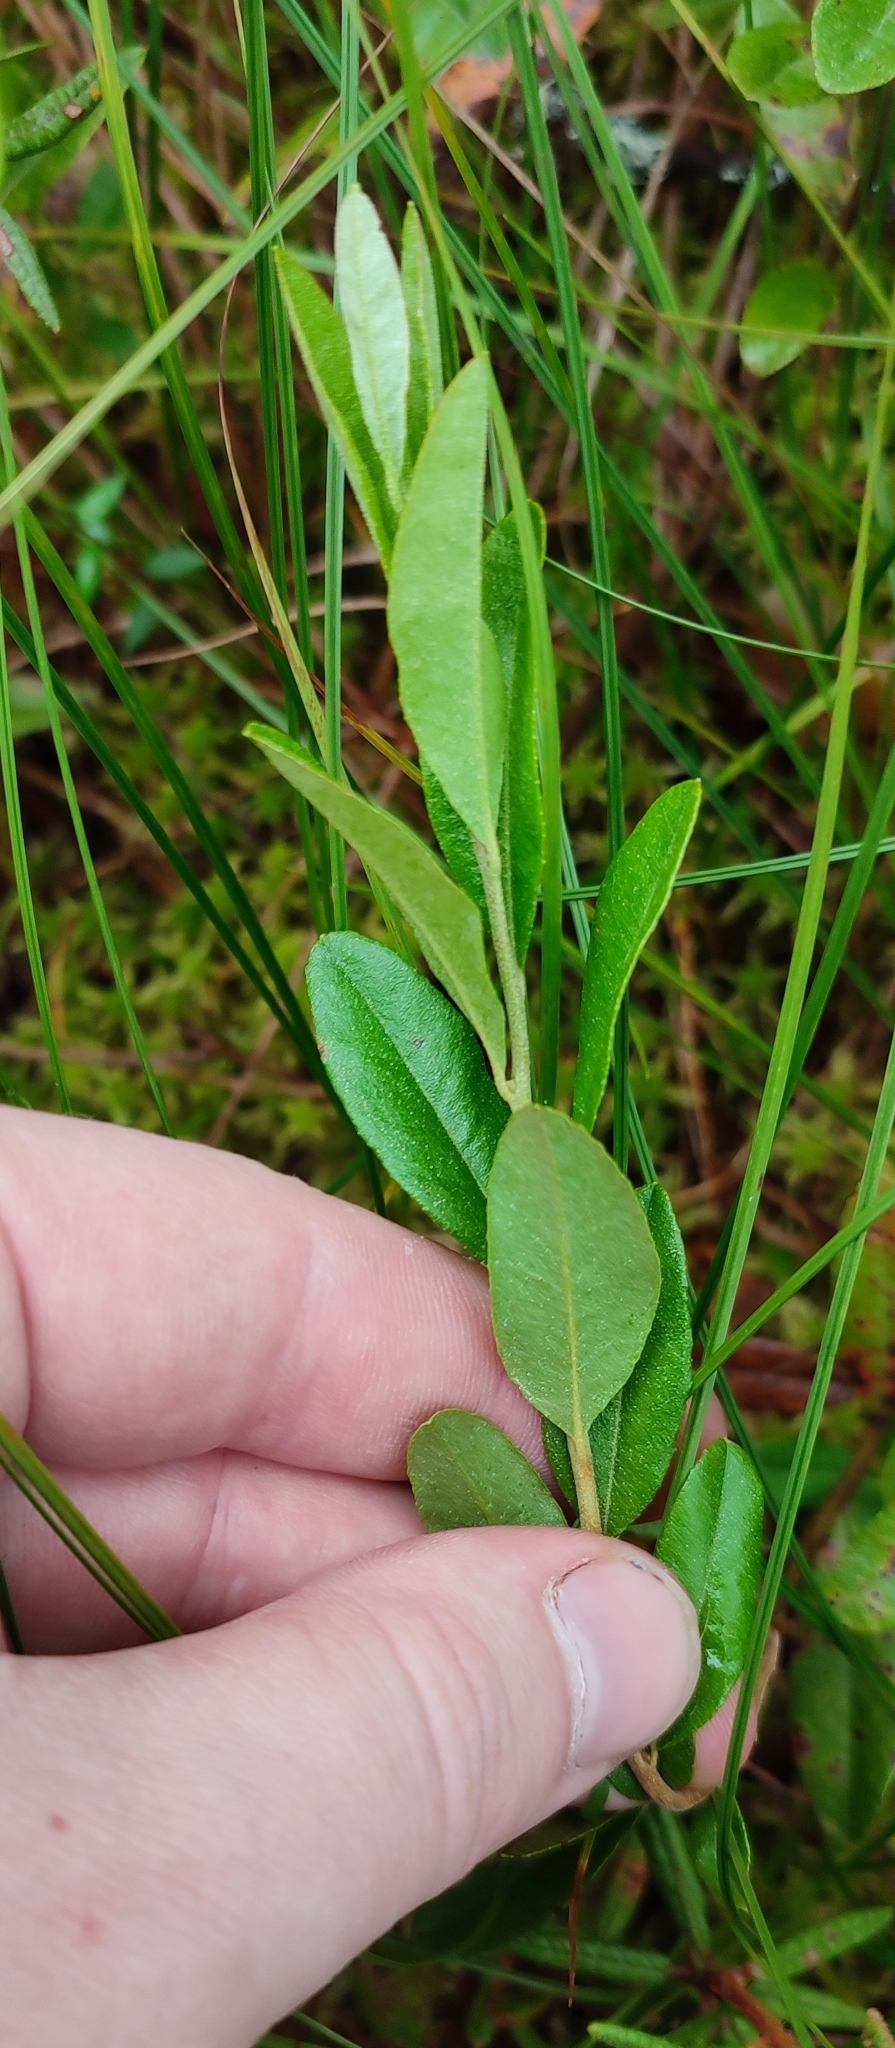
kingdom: Plantae
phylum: Tracheophyta
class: Magnoliopsida
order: Ericales
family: Ericaceae
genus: Chamaedaphne
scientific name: Chamaedaphne calyculata
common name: Leatherleaf
